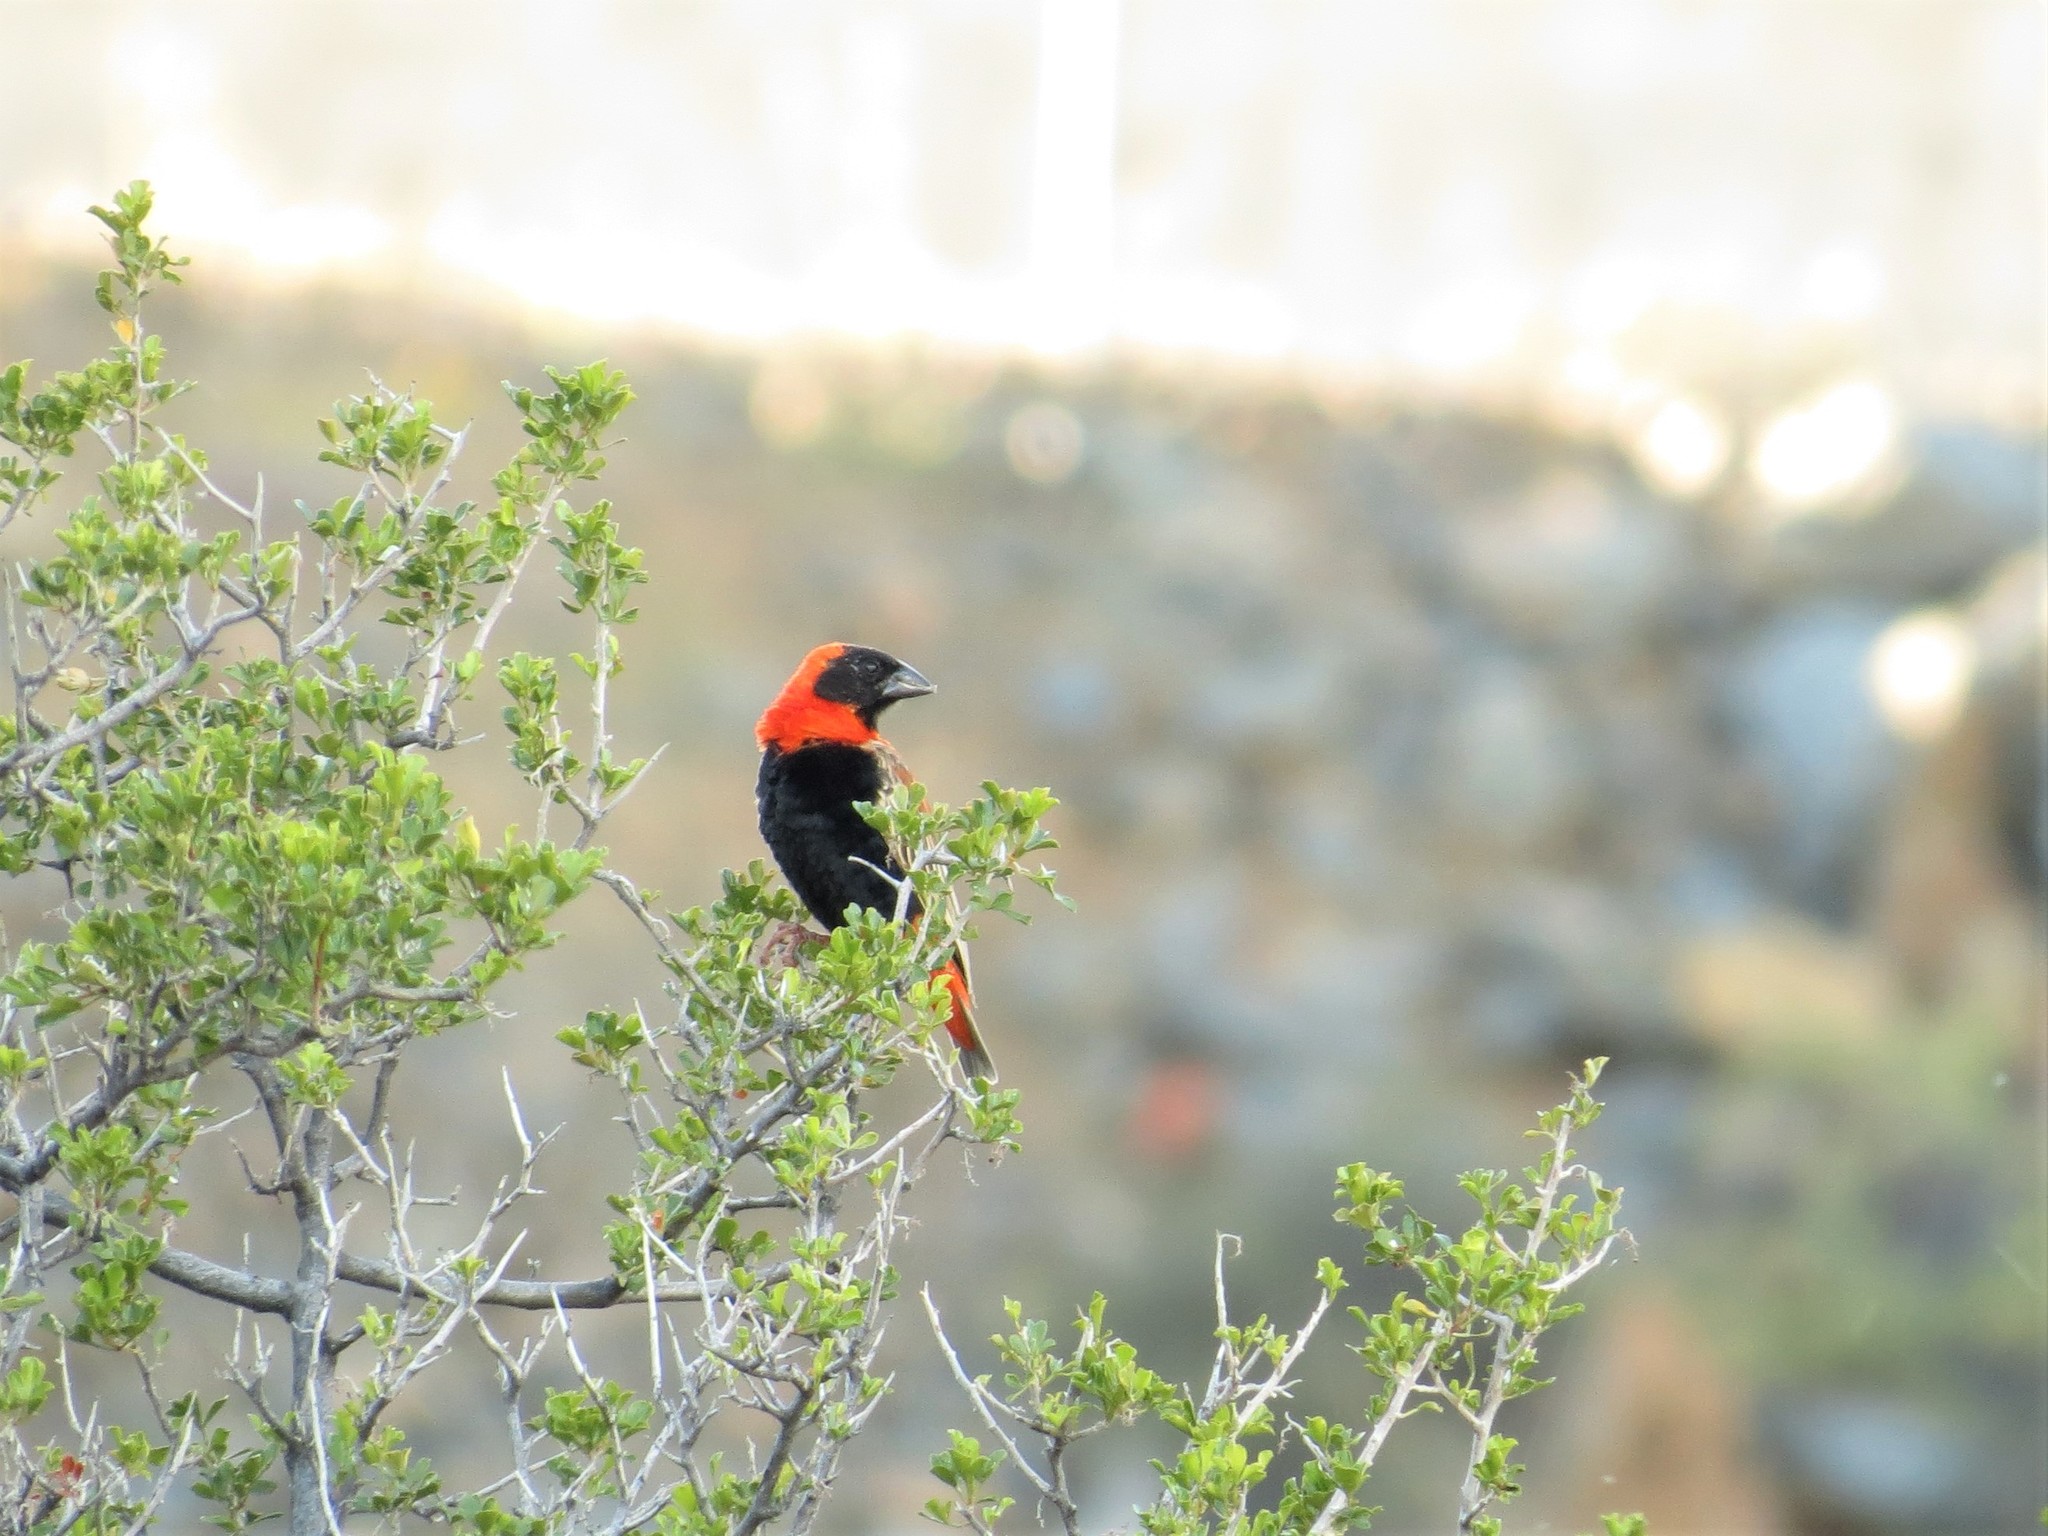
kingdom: Animalia
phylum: Chordata
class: Aves
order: Passeriformes
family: Ploceidae
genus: Euplectes
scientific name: Euplectes orix
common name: Southern red bishop
